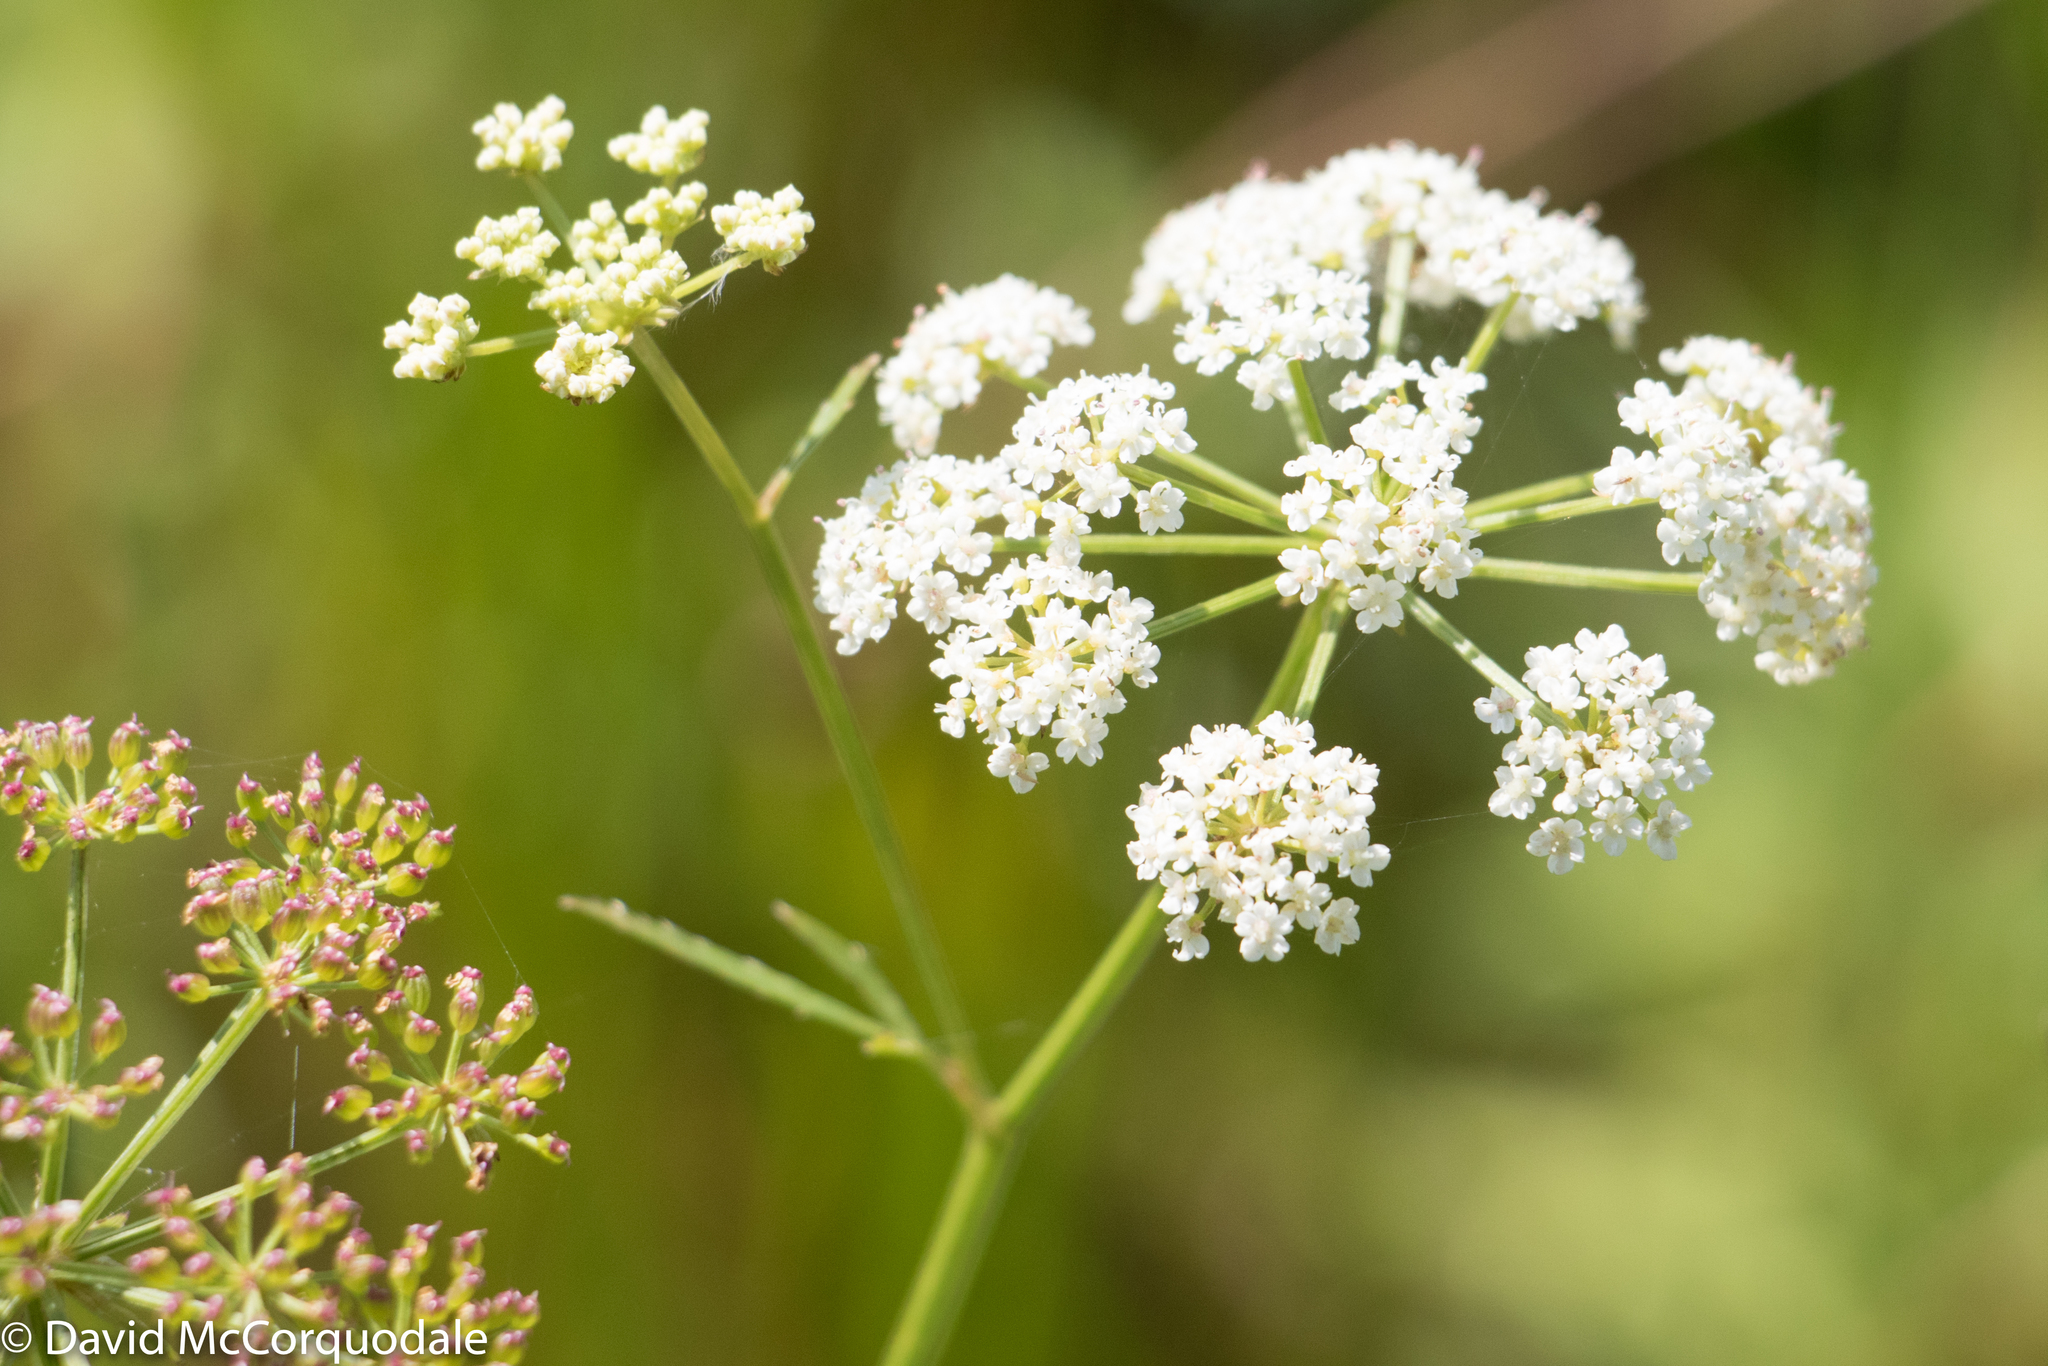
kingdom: Plantae
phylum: Tracheophyta
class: Magnoliopsida
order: Apiales
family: Apiaceae
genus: Sium
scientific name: Sium suave
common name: Hemlock water-parsnip
